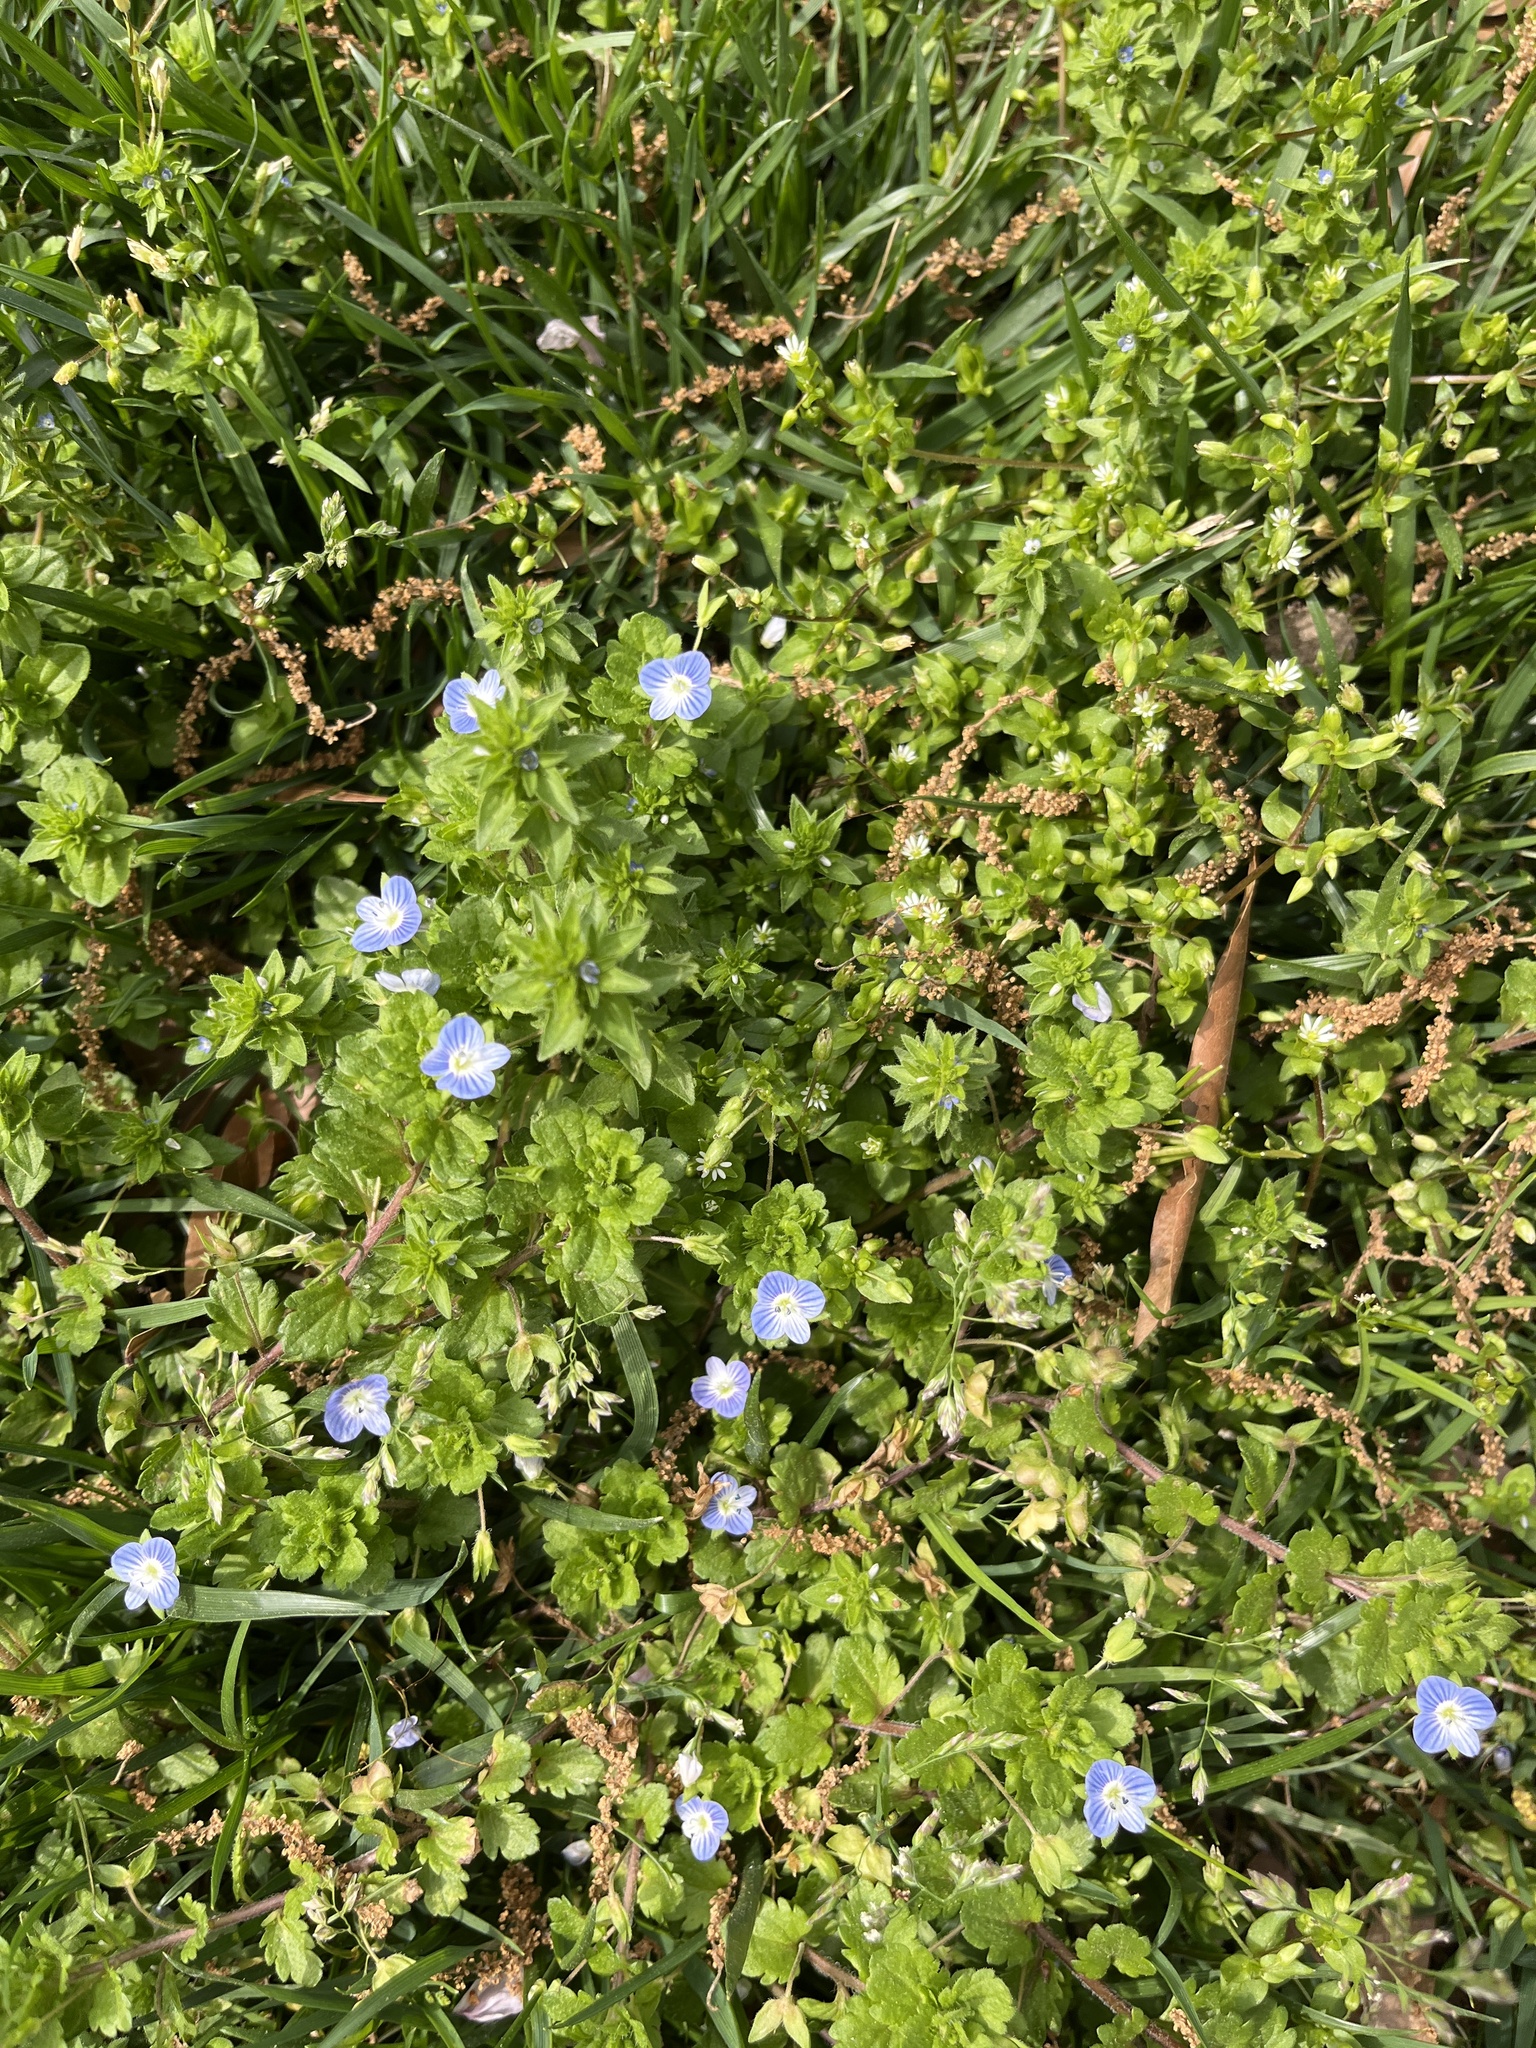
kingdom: Plantae
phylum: Tracheophyta
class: Magnoliopsida
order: Lamiales
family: Plantaginaceae
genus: Veronica
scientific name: Veronica persica
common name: Common field-speedwell
